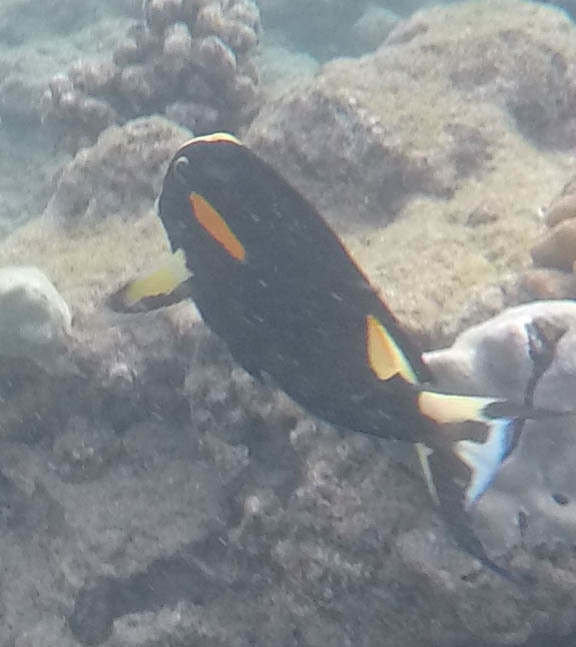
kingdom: Animalia
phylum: Chordata
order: Perciformes
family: Acanthuridae
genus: Acanthurus
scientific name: Acanthurus olivaceus
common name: Gendarme fish
